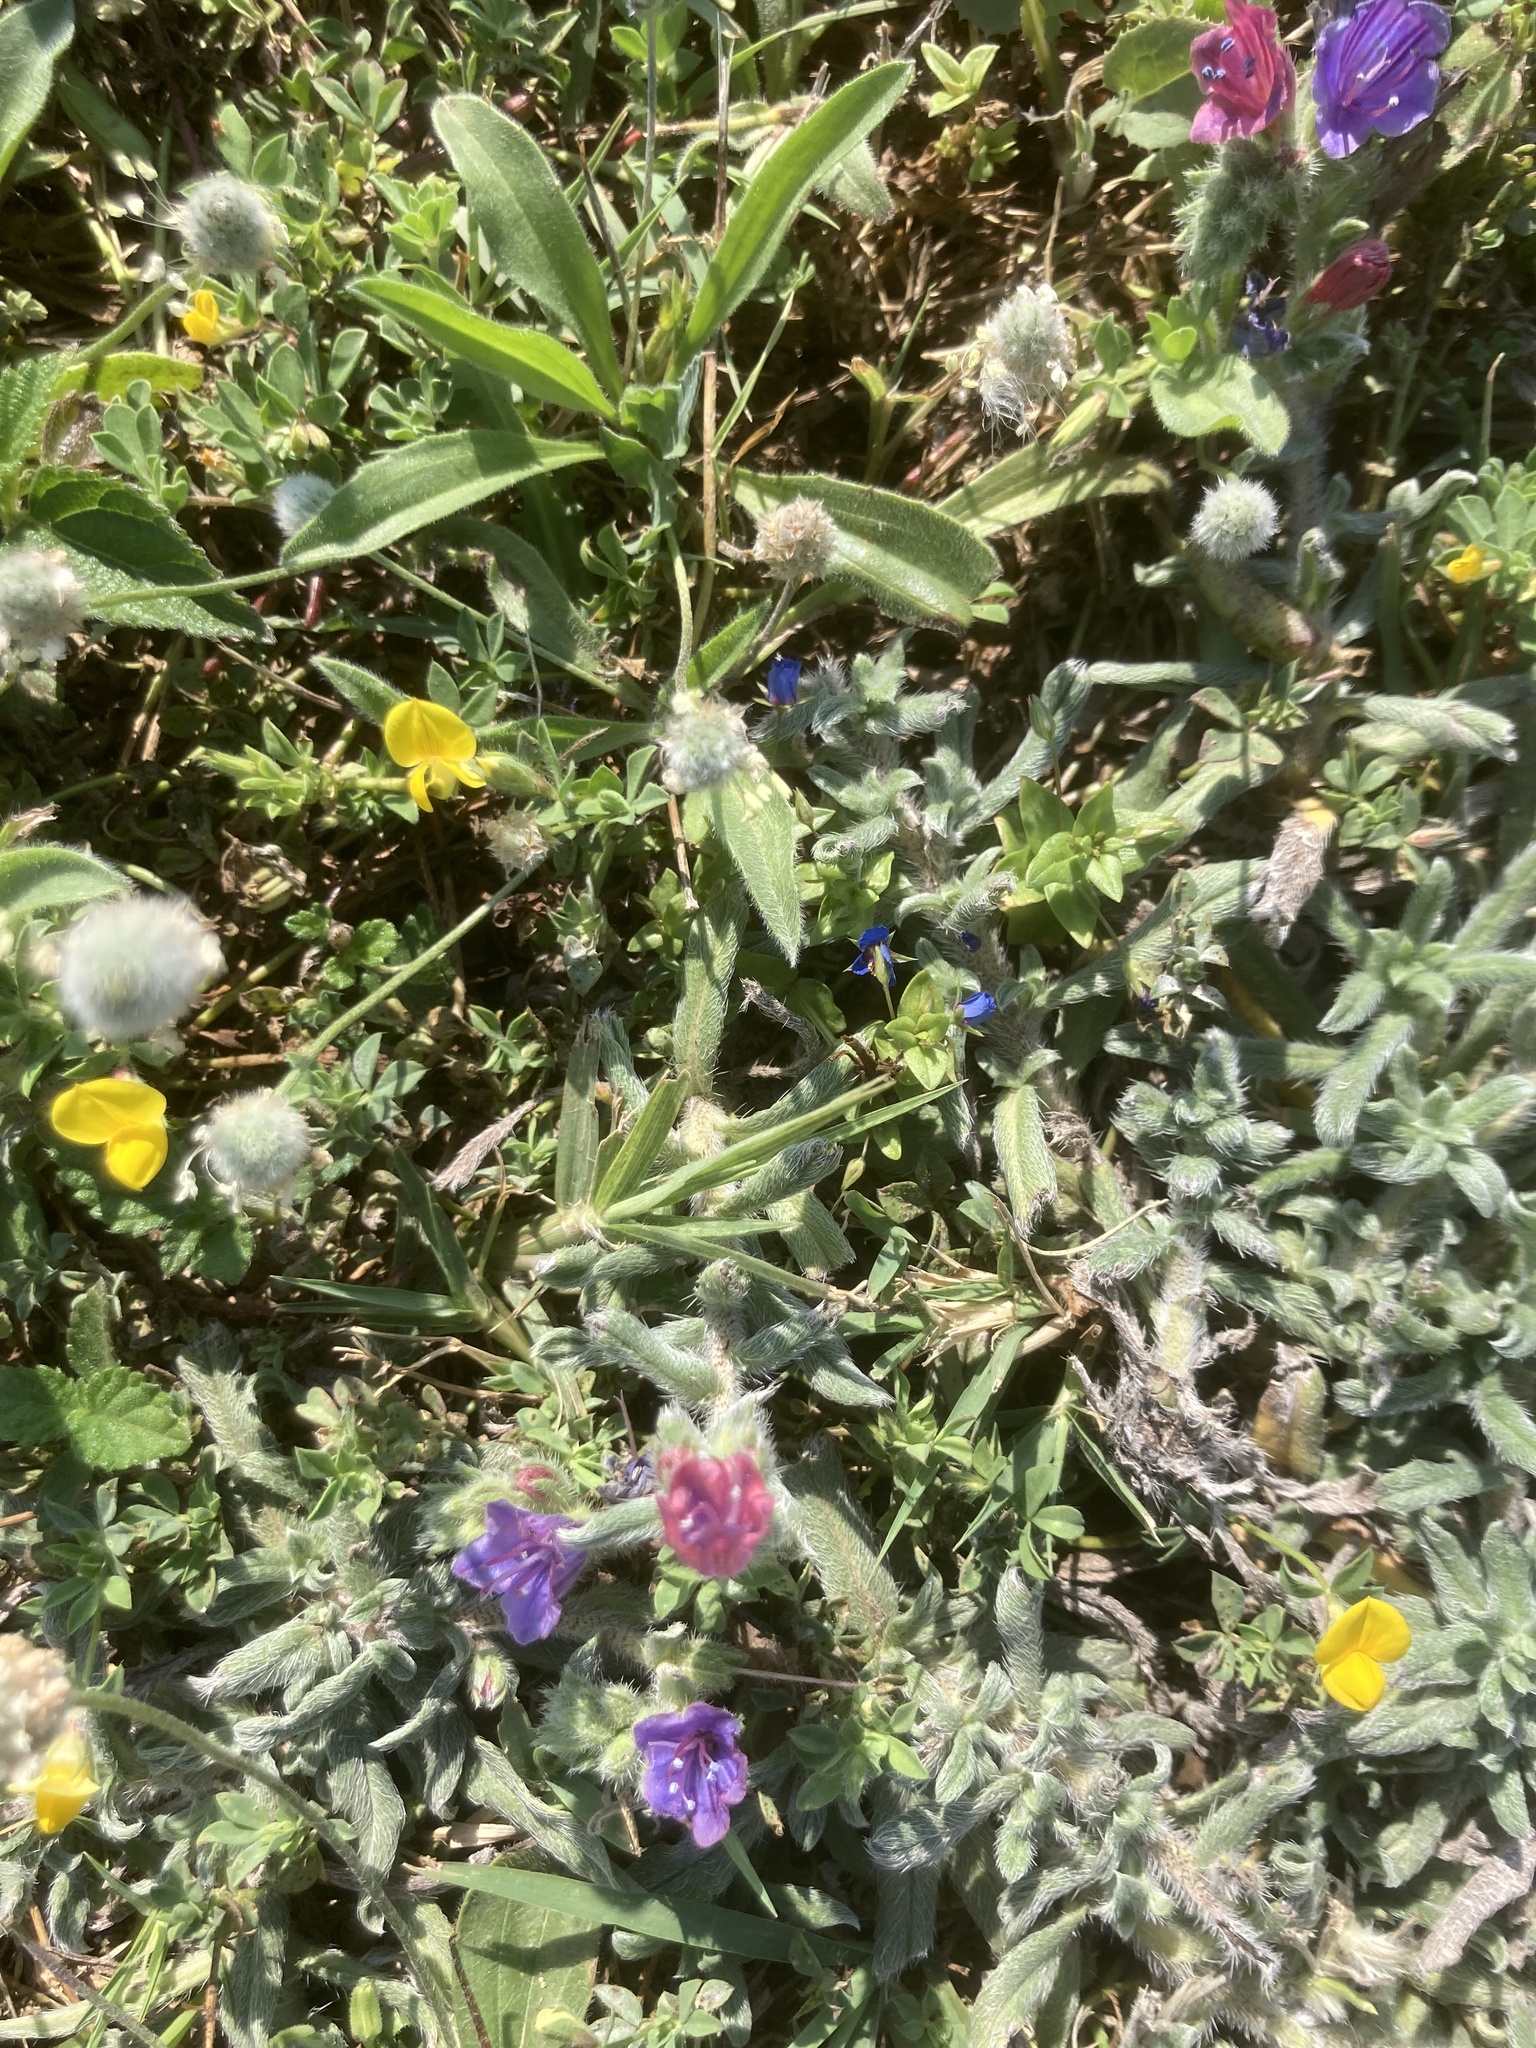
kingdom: Plantae
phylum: Tracheophyta
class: Magnoliopsida
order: Boraginales
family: Boraginaceae
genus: Echium
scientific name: Echium angustifolium
